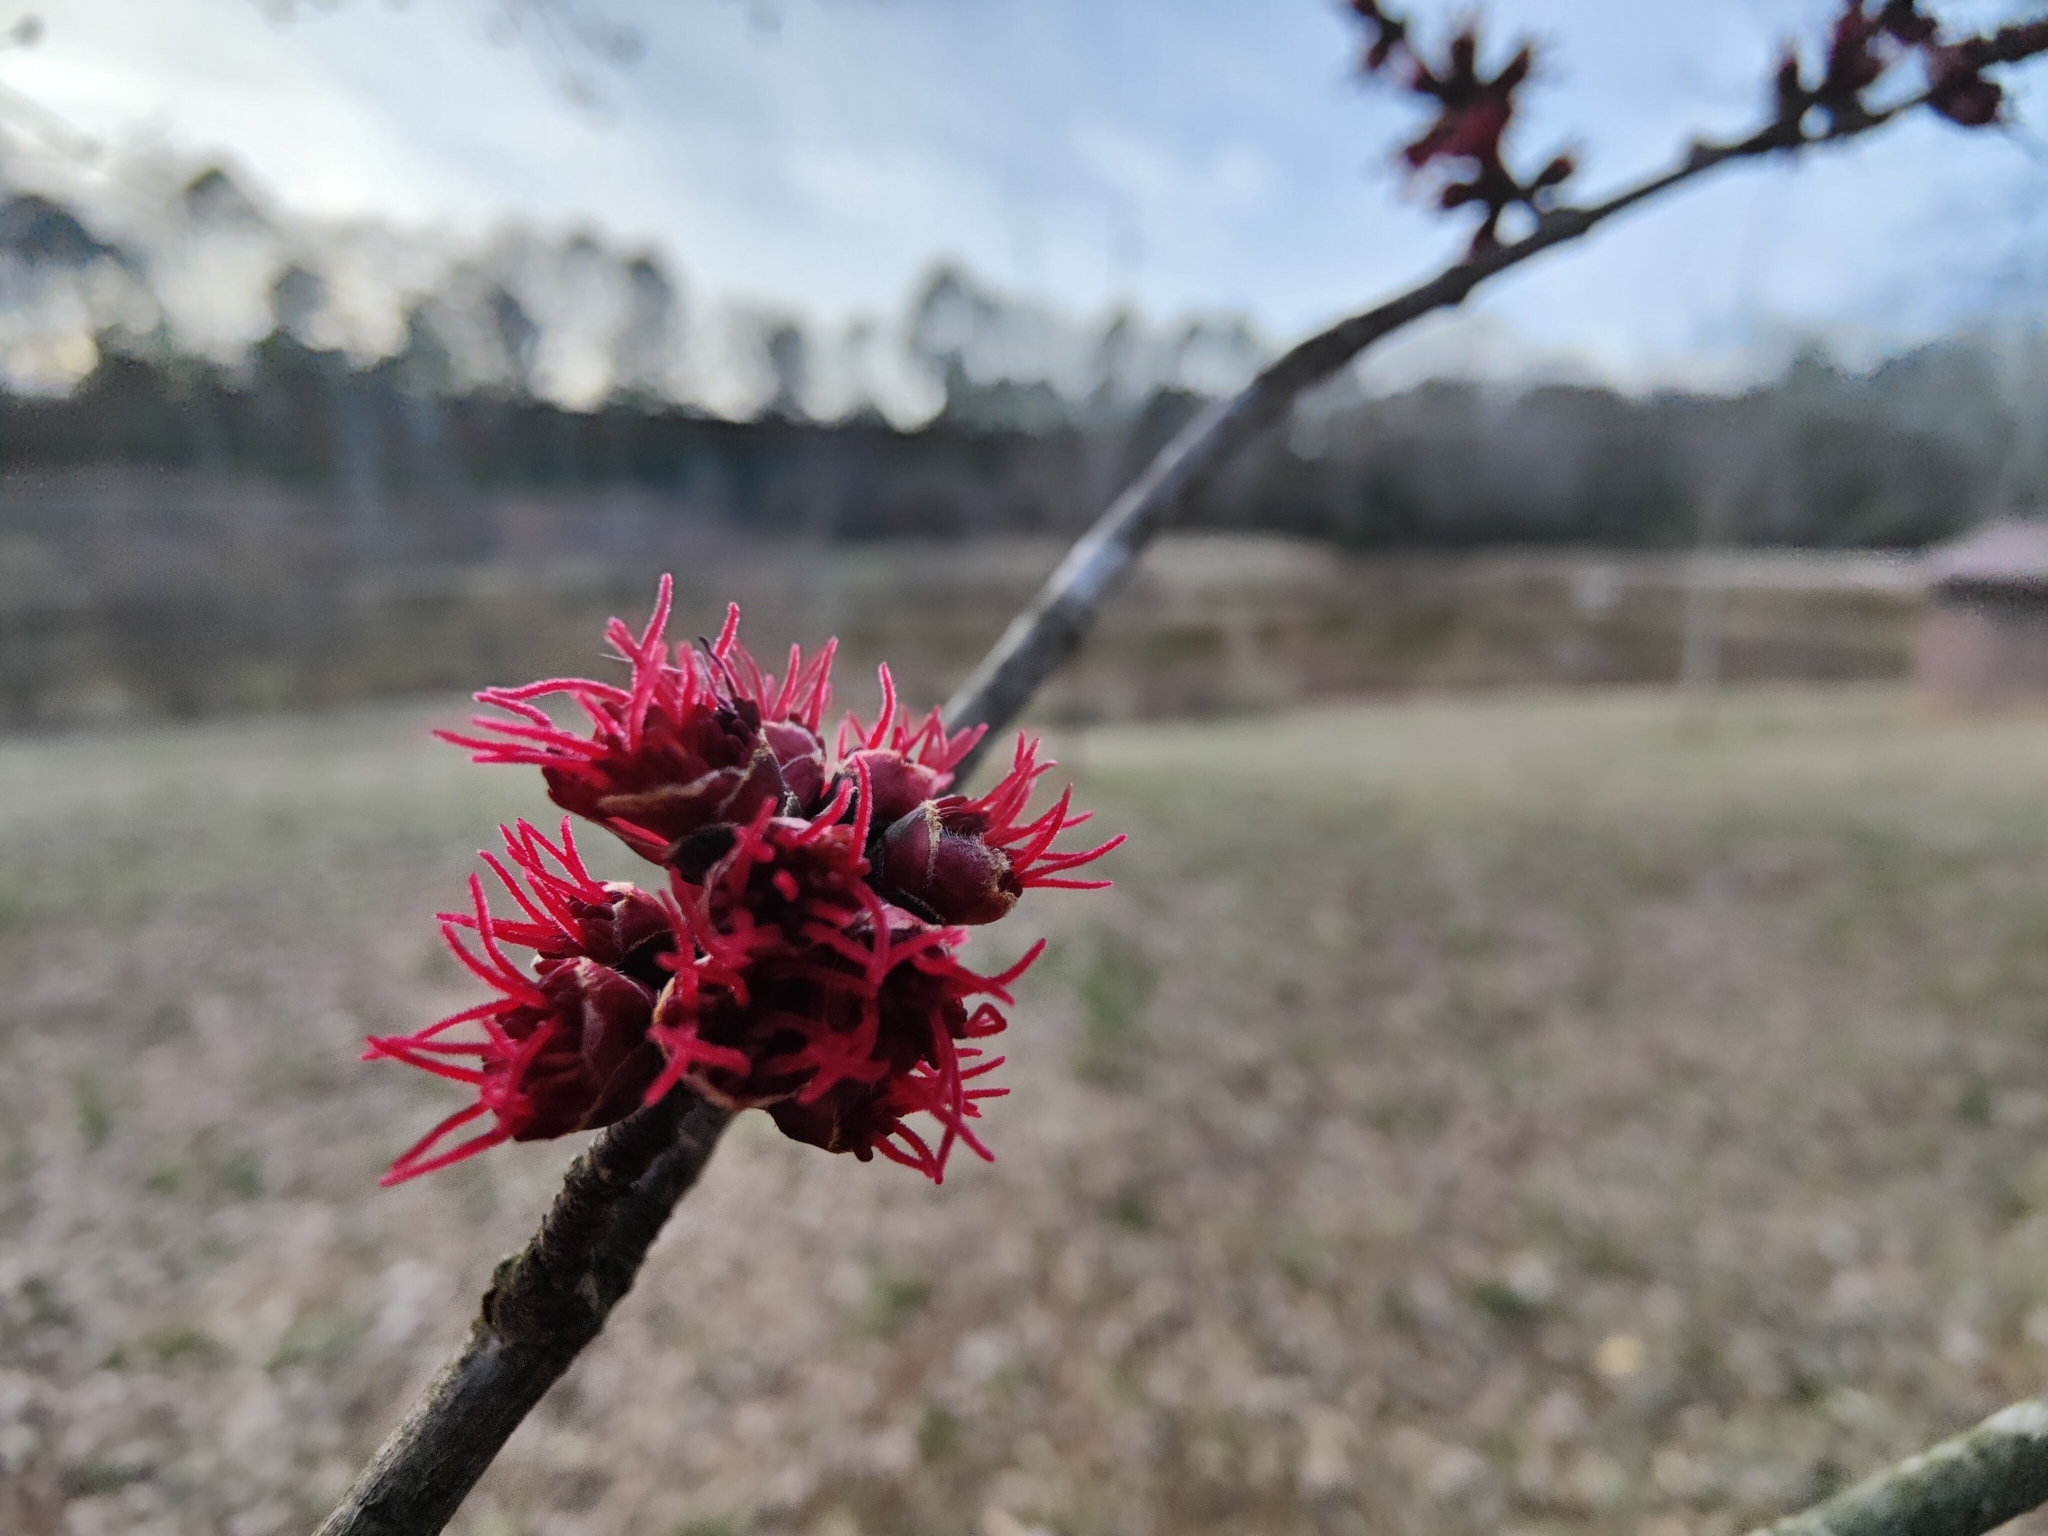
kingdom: Plantae
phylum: Tracheophyta
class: Magnoliopsida
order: Sapindales
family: Sapindaceae
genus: Acer
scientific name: Acer rubrum
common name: Red maple
